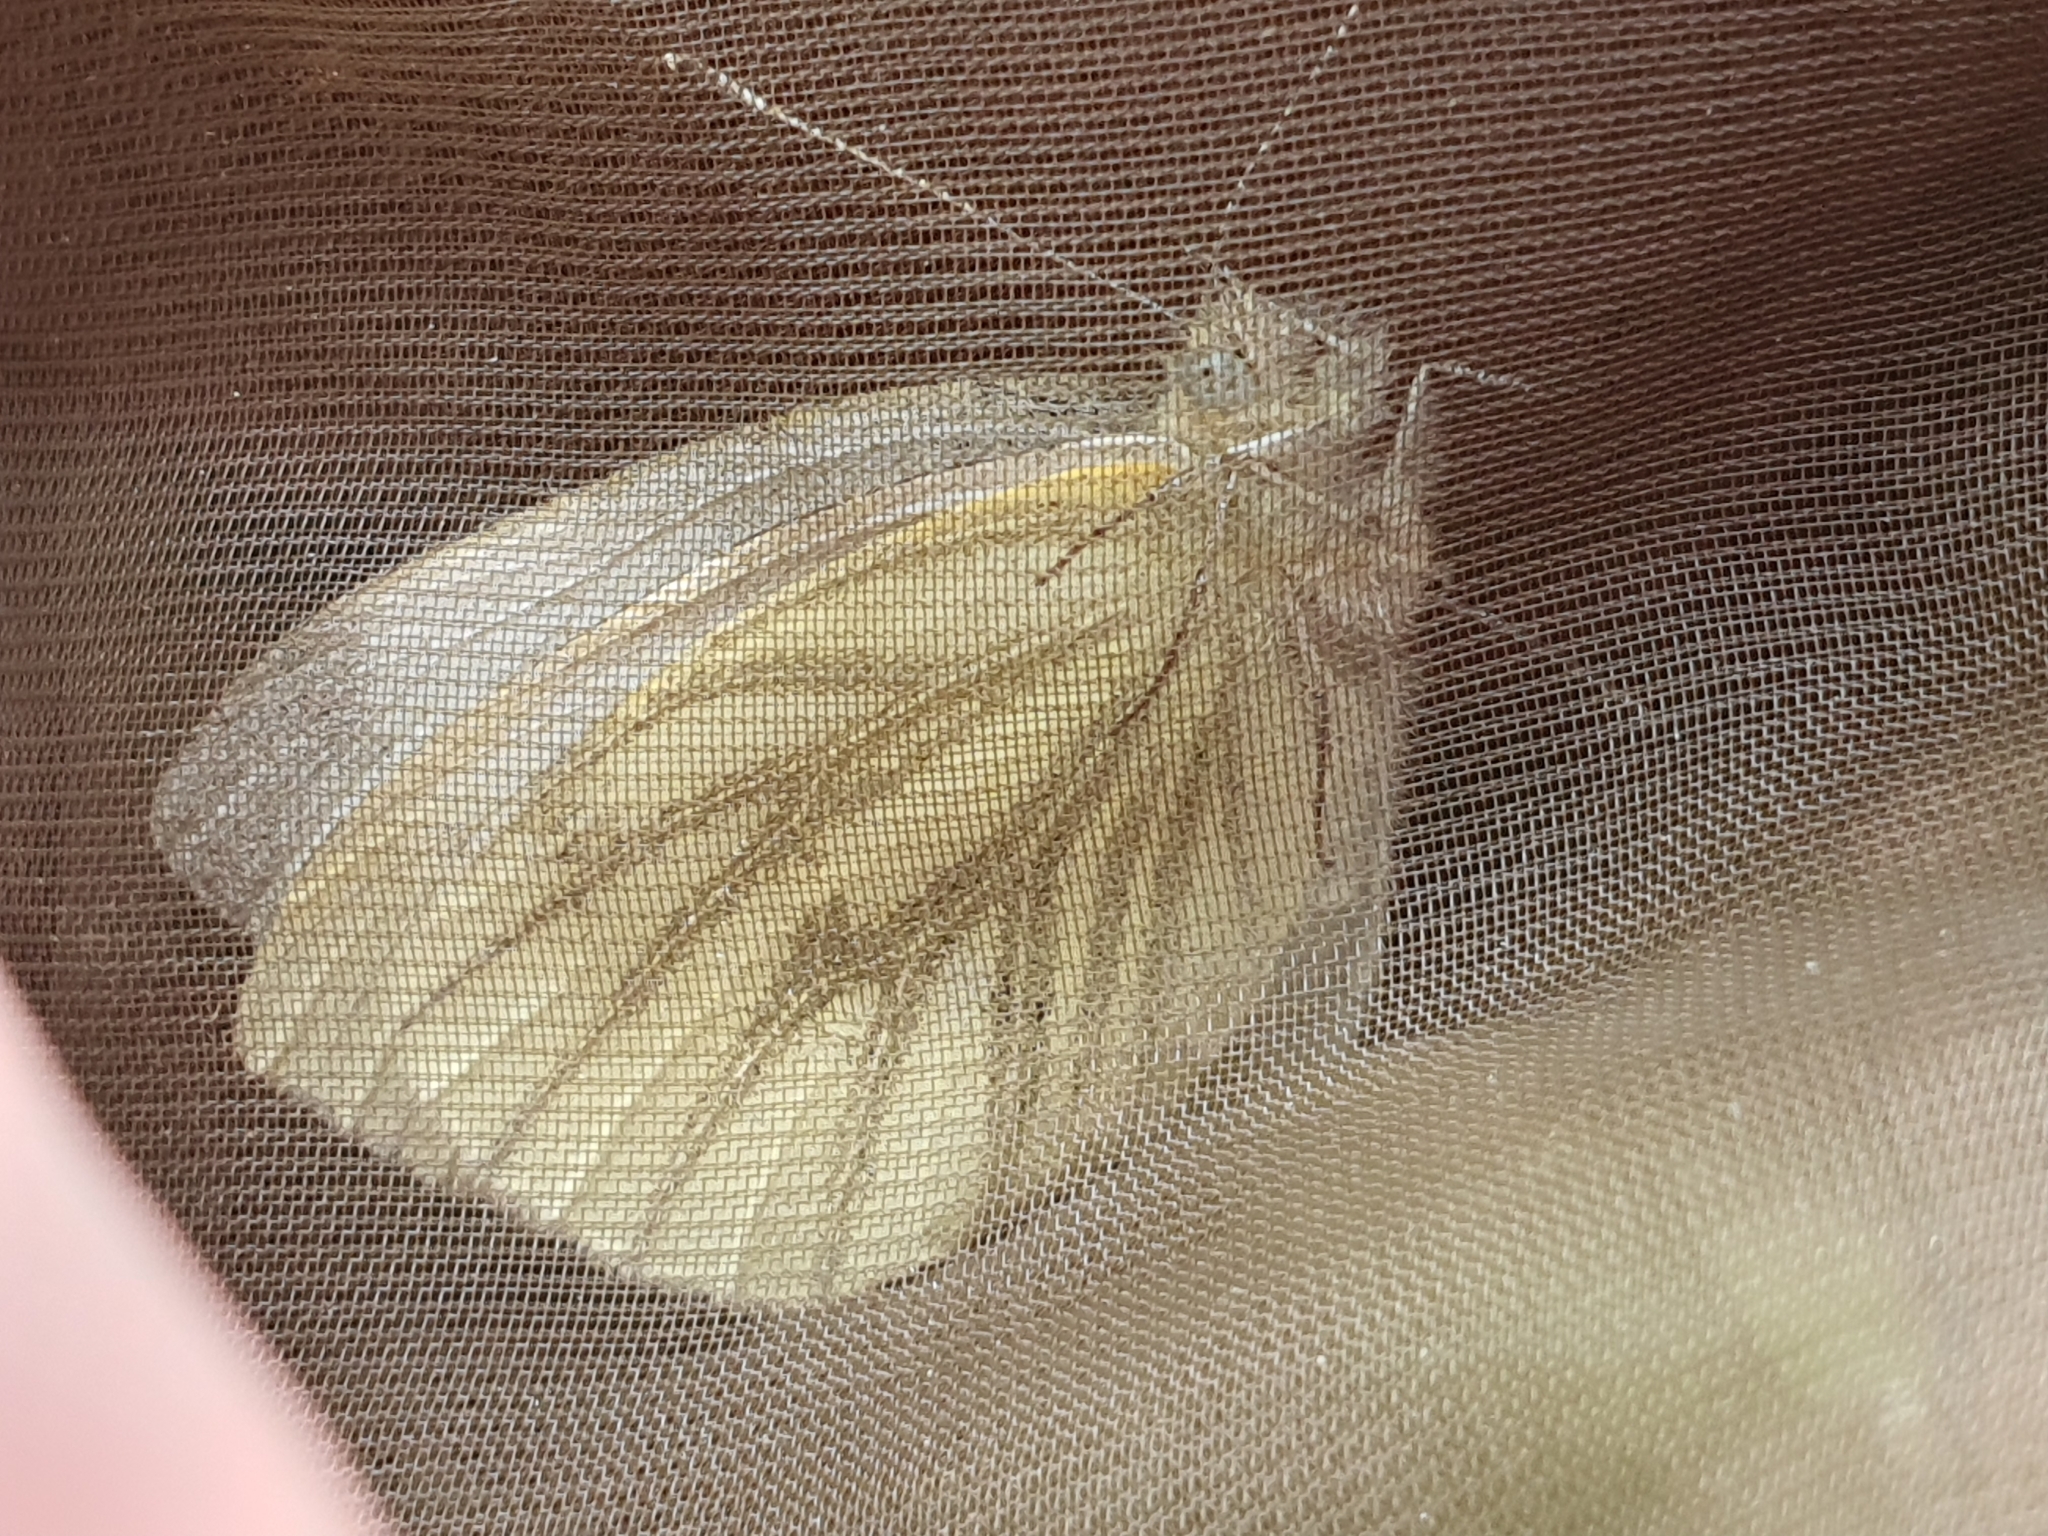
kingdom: Animalia
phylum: Arthropoda
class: Insecta
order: Lepidoptera
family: Pieridae
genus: Pieris
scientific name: Pieris napi
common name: Green-veined white
